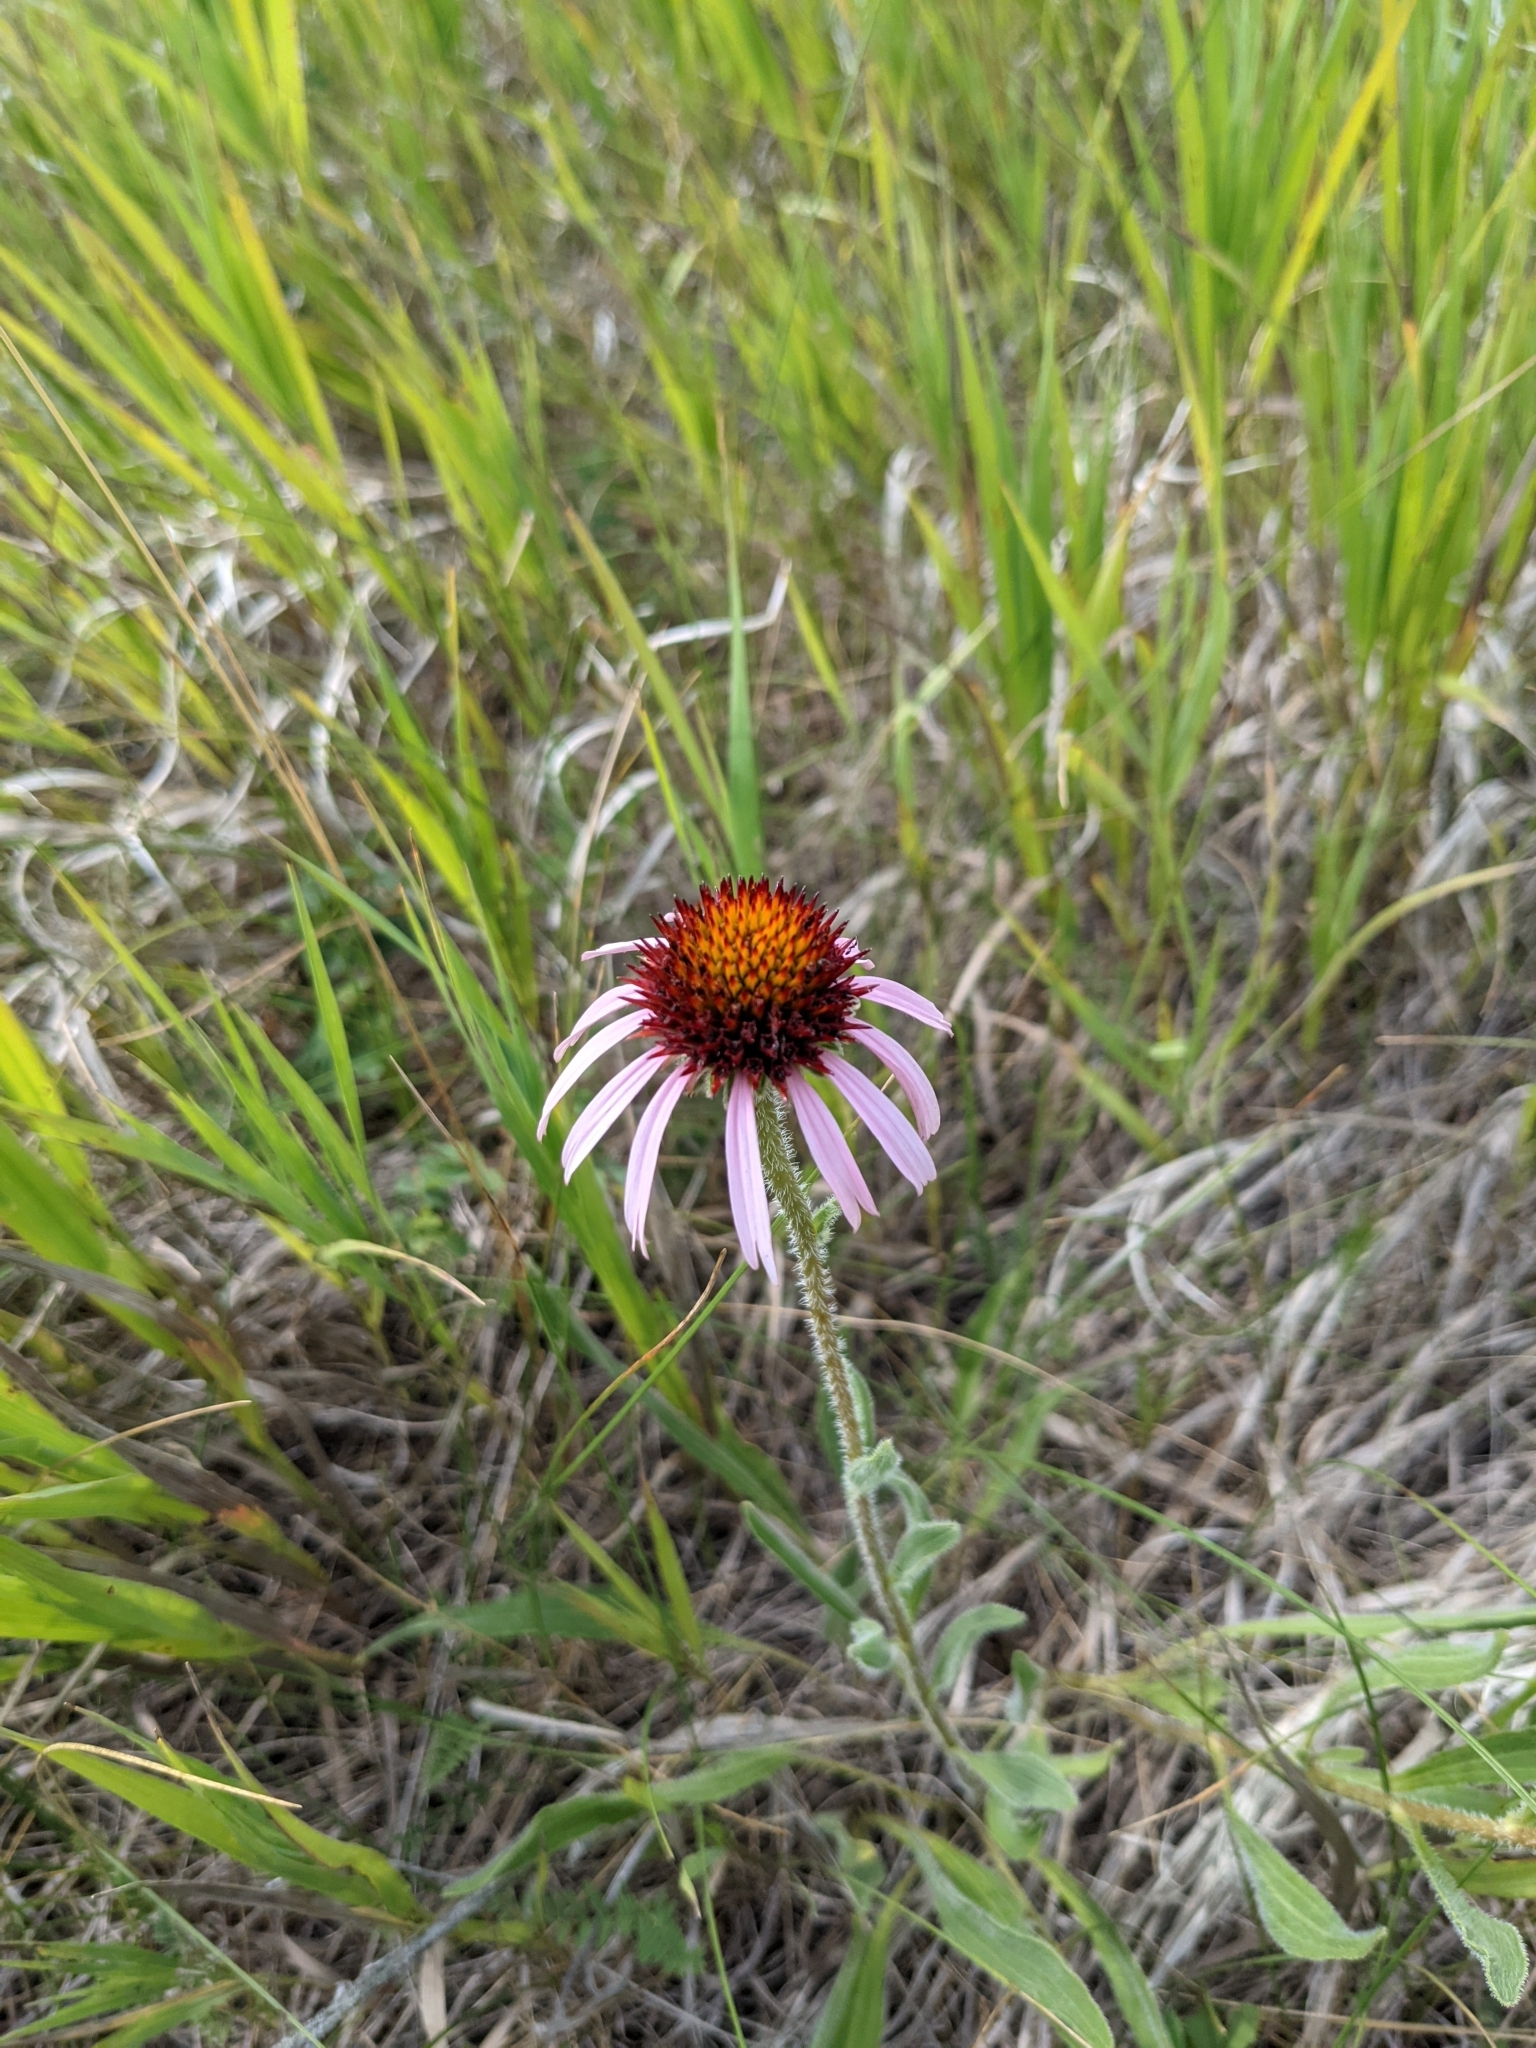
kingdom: Plantae
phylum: Tracheophyta
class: Magnoliopsida
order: Asterales
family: Asteraceae
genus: Echinacea
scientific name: Echinacea angustifolia
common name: Black-sampson echinacea
